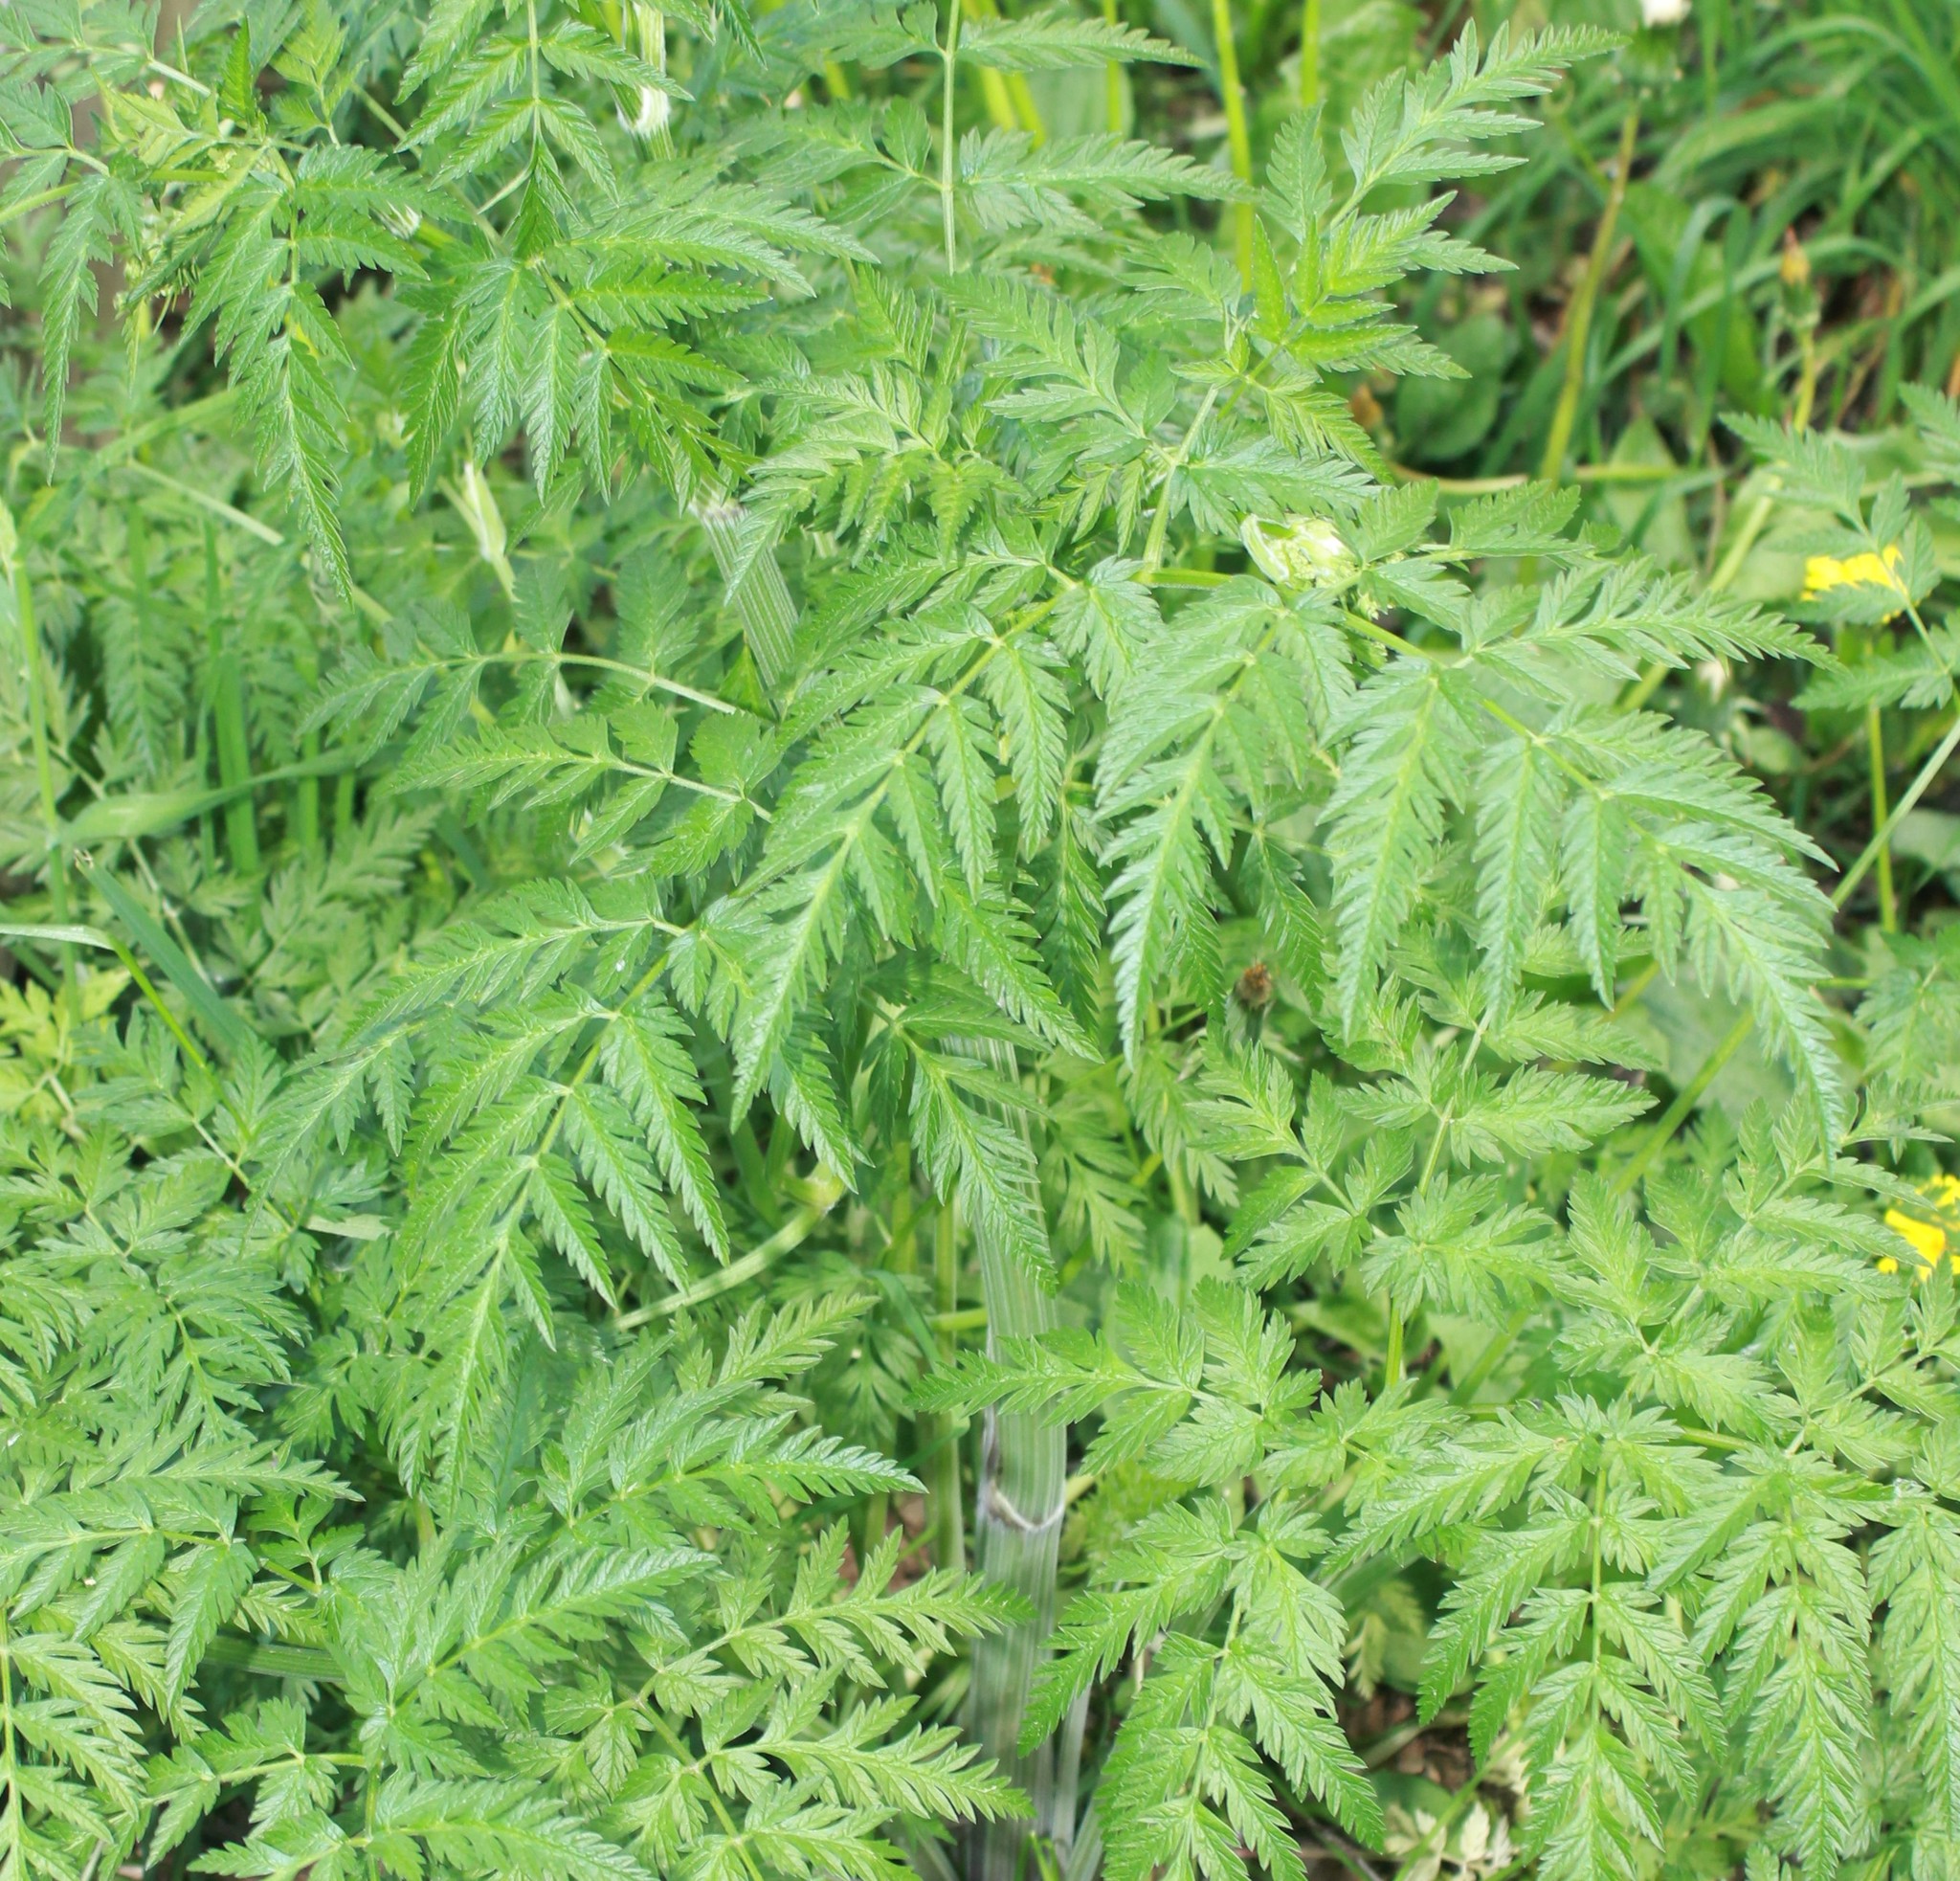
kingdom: Plantae
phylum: Tracheophyta
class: Magnoliopsida
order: Apiales
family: Apiaceae
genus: Anthriscus
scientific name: Anthriscus sylvestris
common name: Cow parsley
